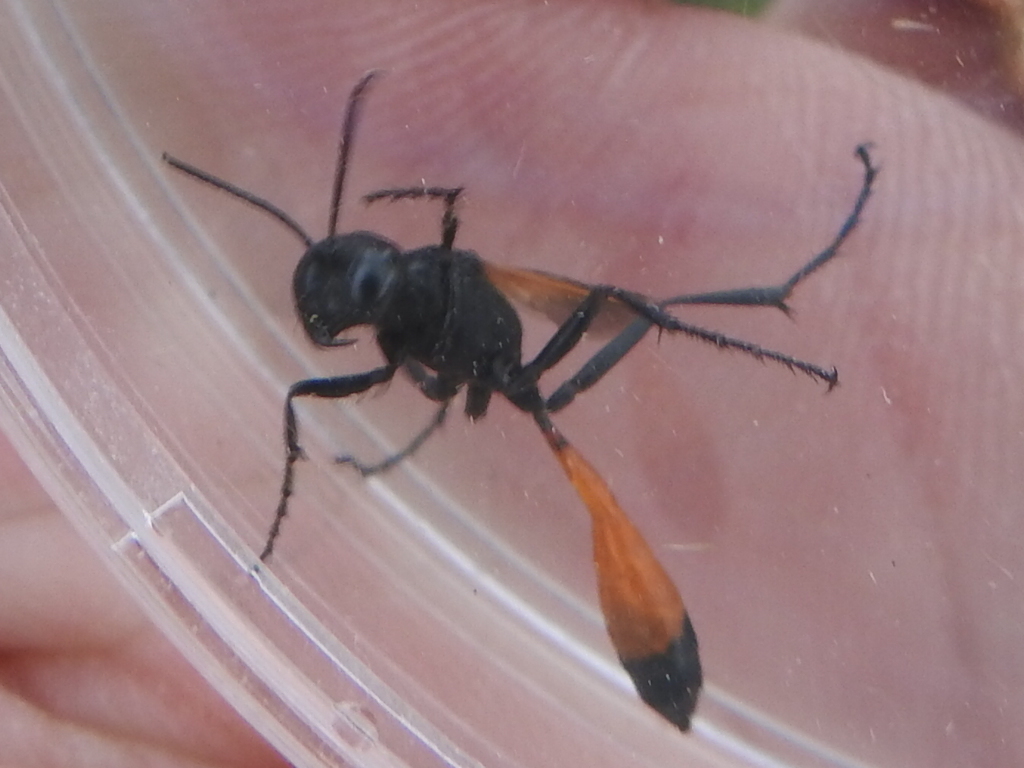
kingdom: Animalia
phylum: Arthropoda
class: Insecta
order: Hymenoptera
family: Sphecidae
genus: Ammophila
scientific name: Ammophila placida
